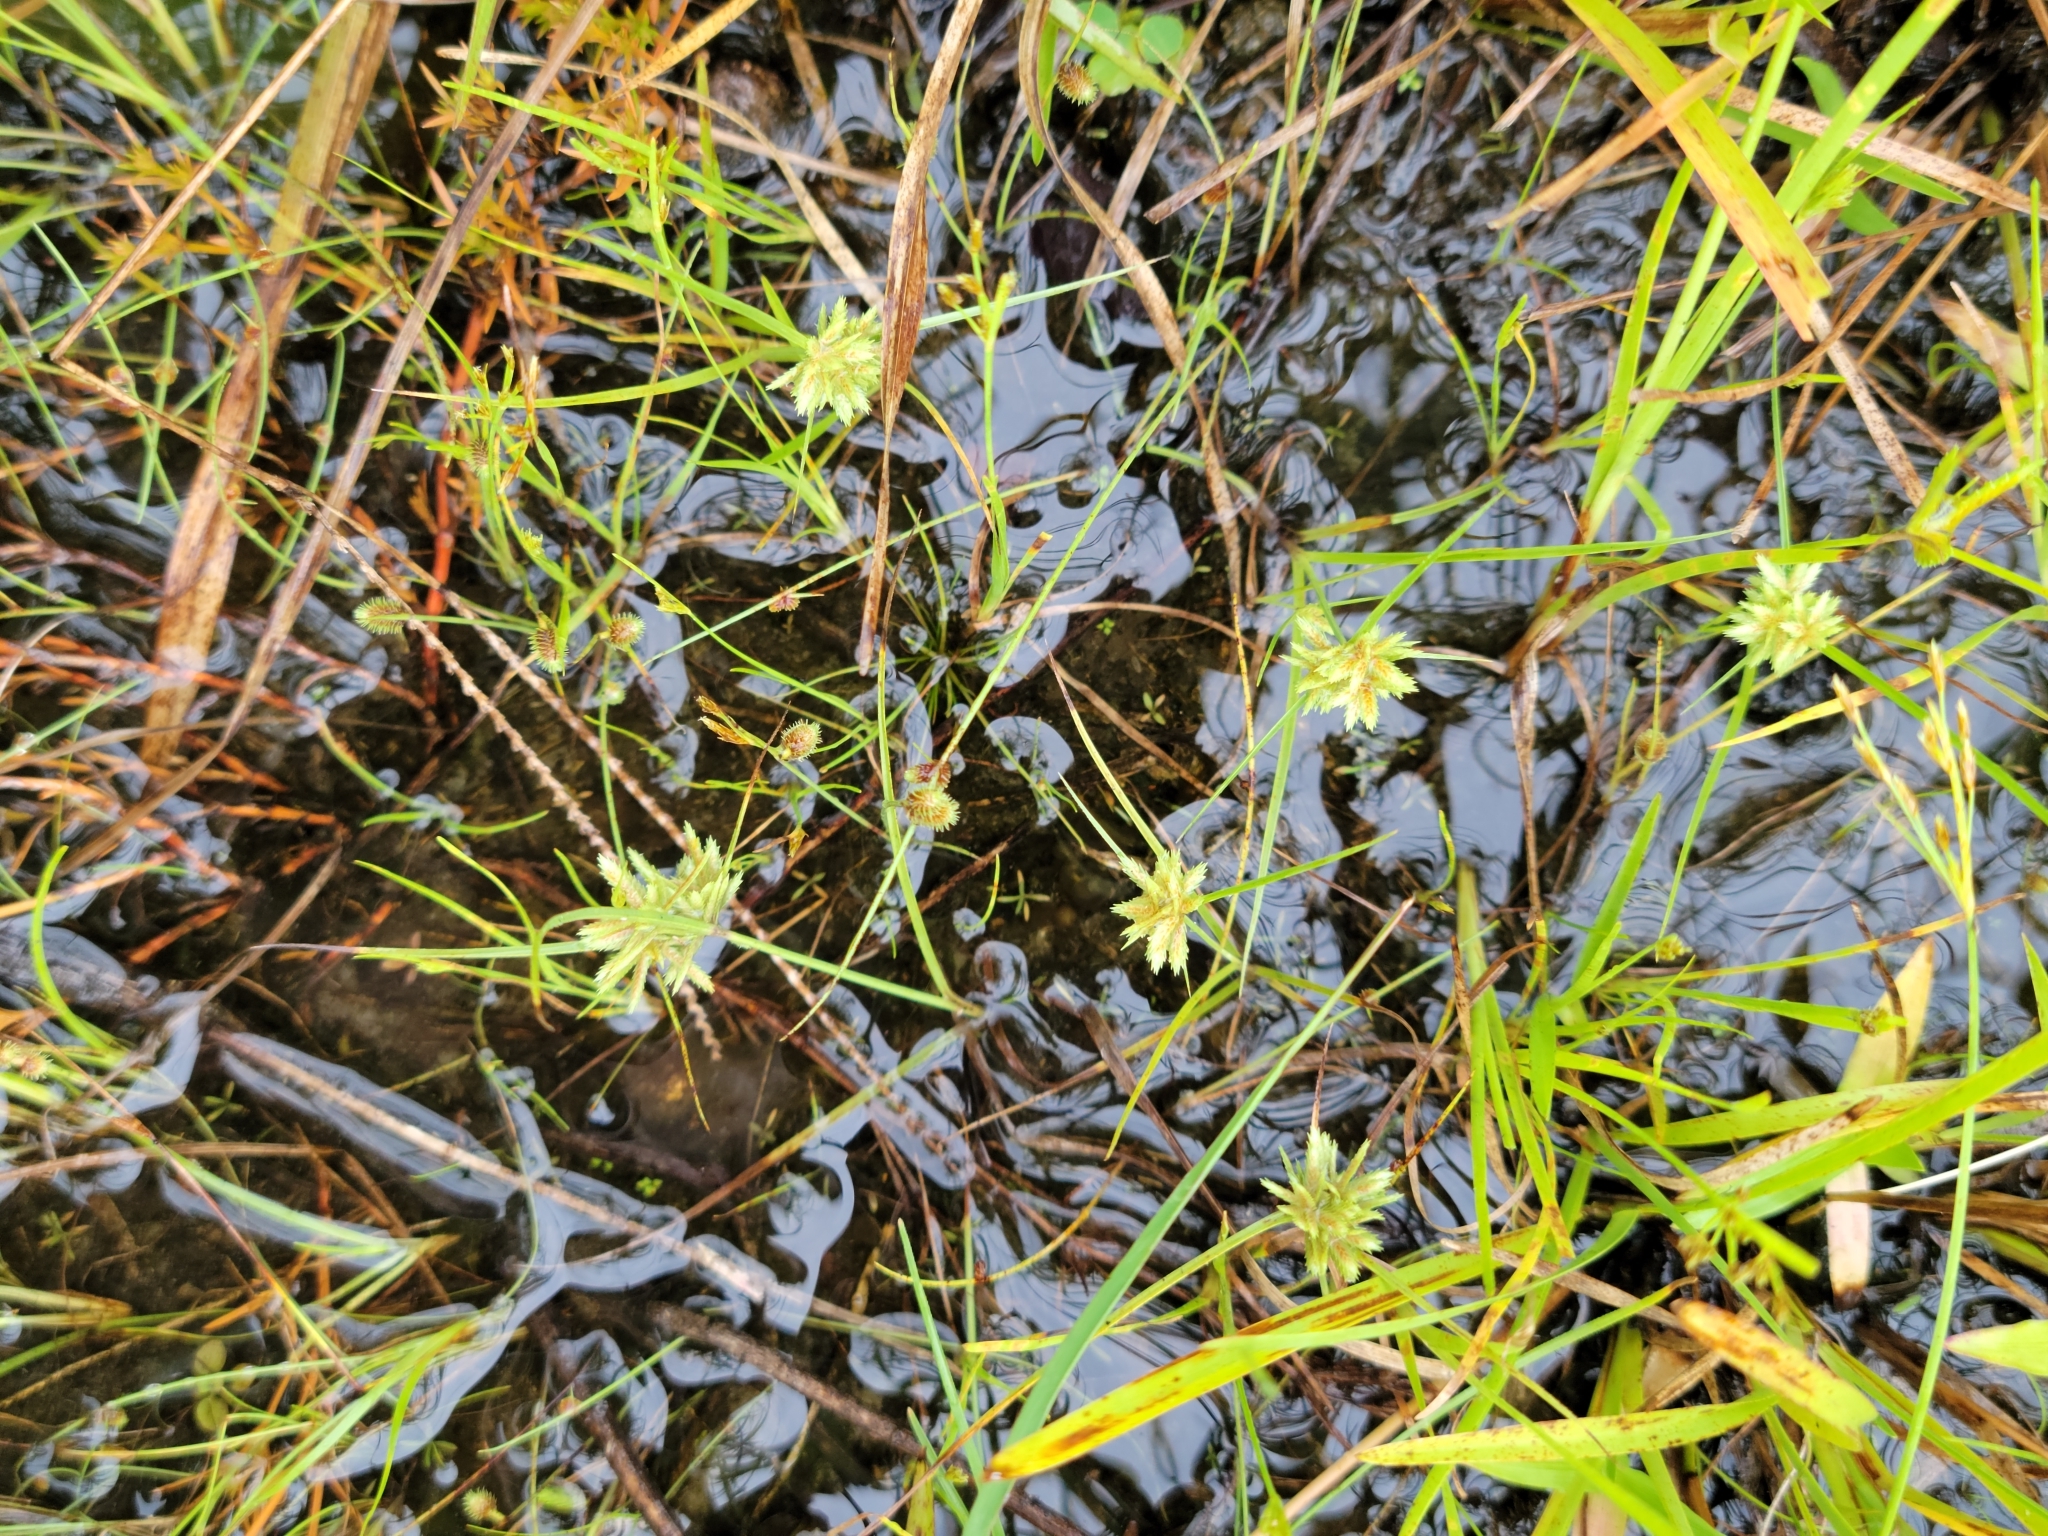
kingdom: Plantae
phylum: Tracheophyta
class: Liliopsida
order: Poales
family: Cyperaceae
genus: Cyperus
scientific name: Cyperus pumilus
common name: Low flatsedge
